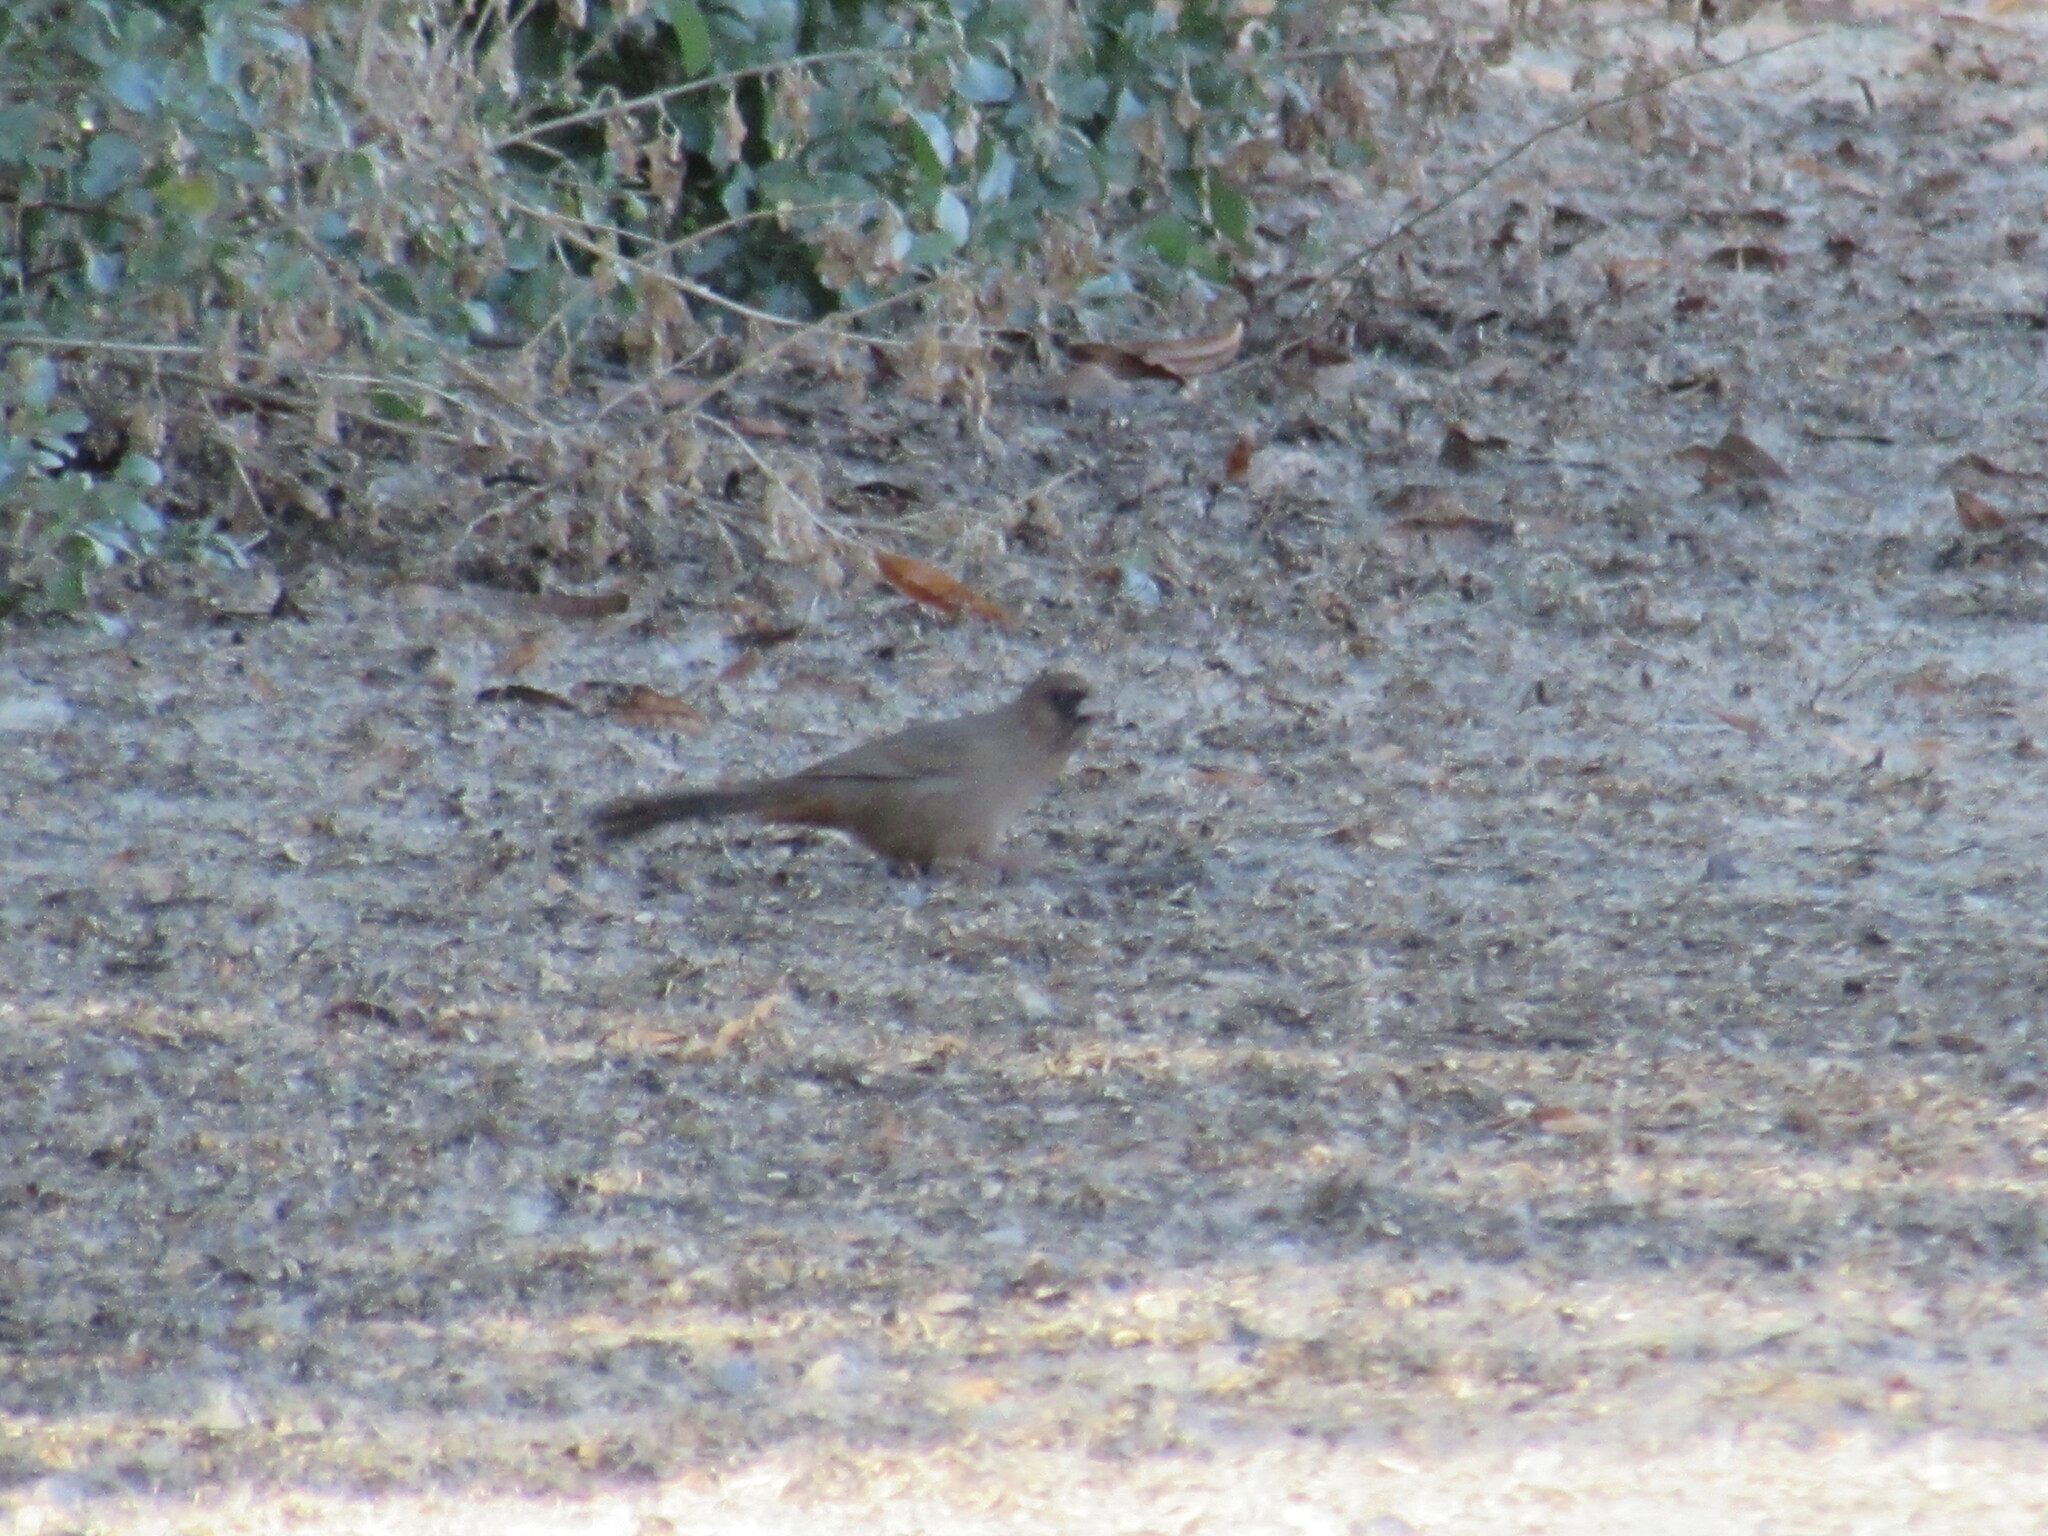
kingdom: Animalia
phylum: Chordata
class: Aves
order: Passeriformes
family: Passerellidae
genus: Melozone
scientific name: Melozone aberti
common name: Abert's towhee
